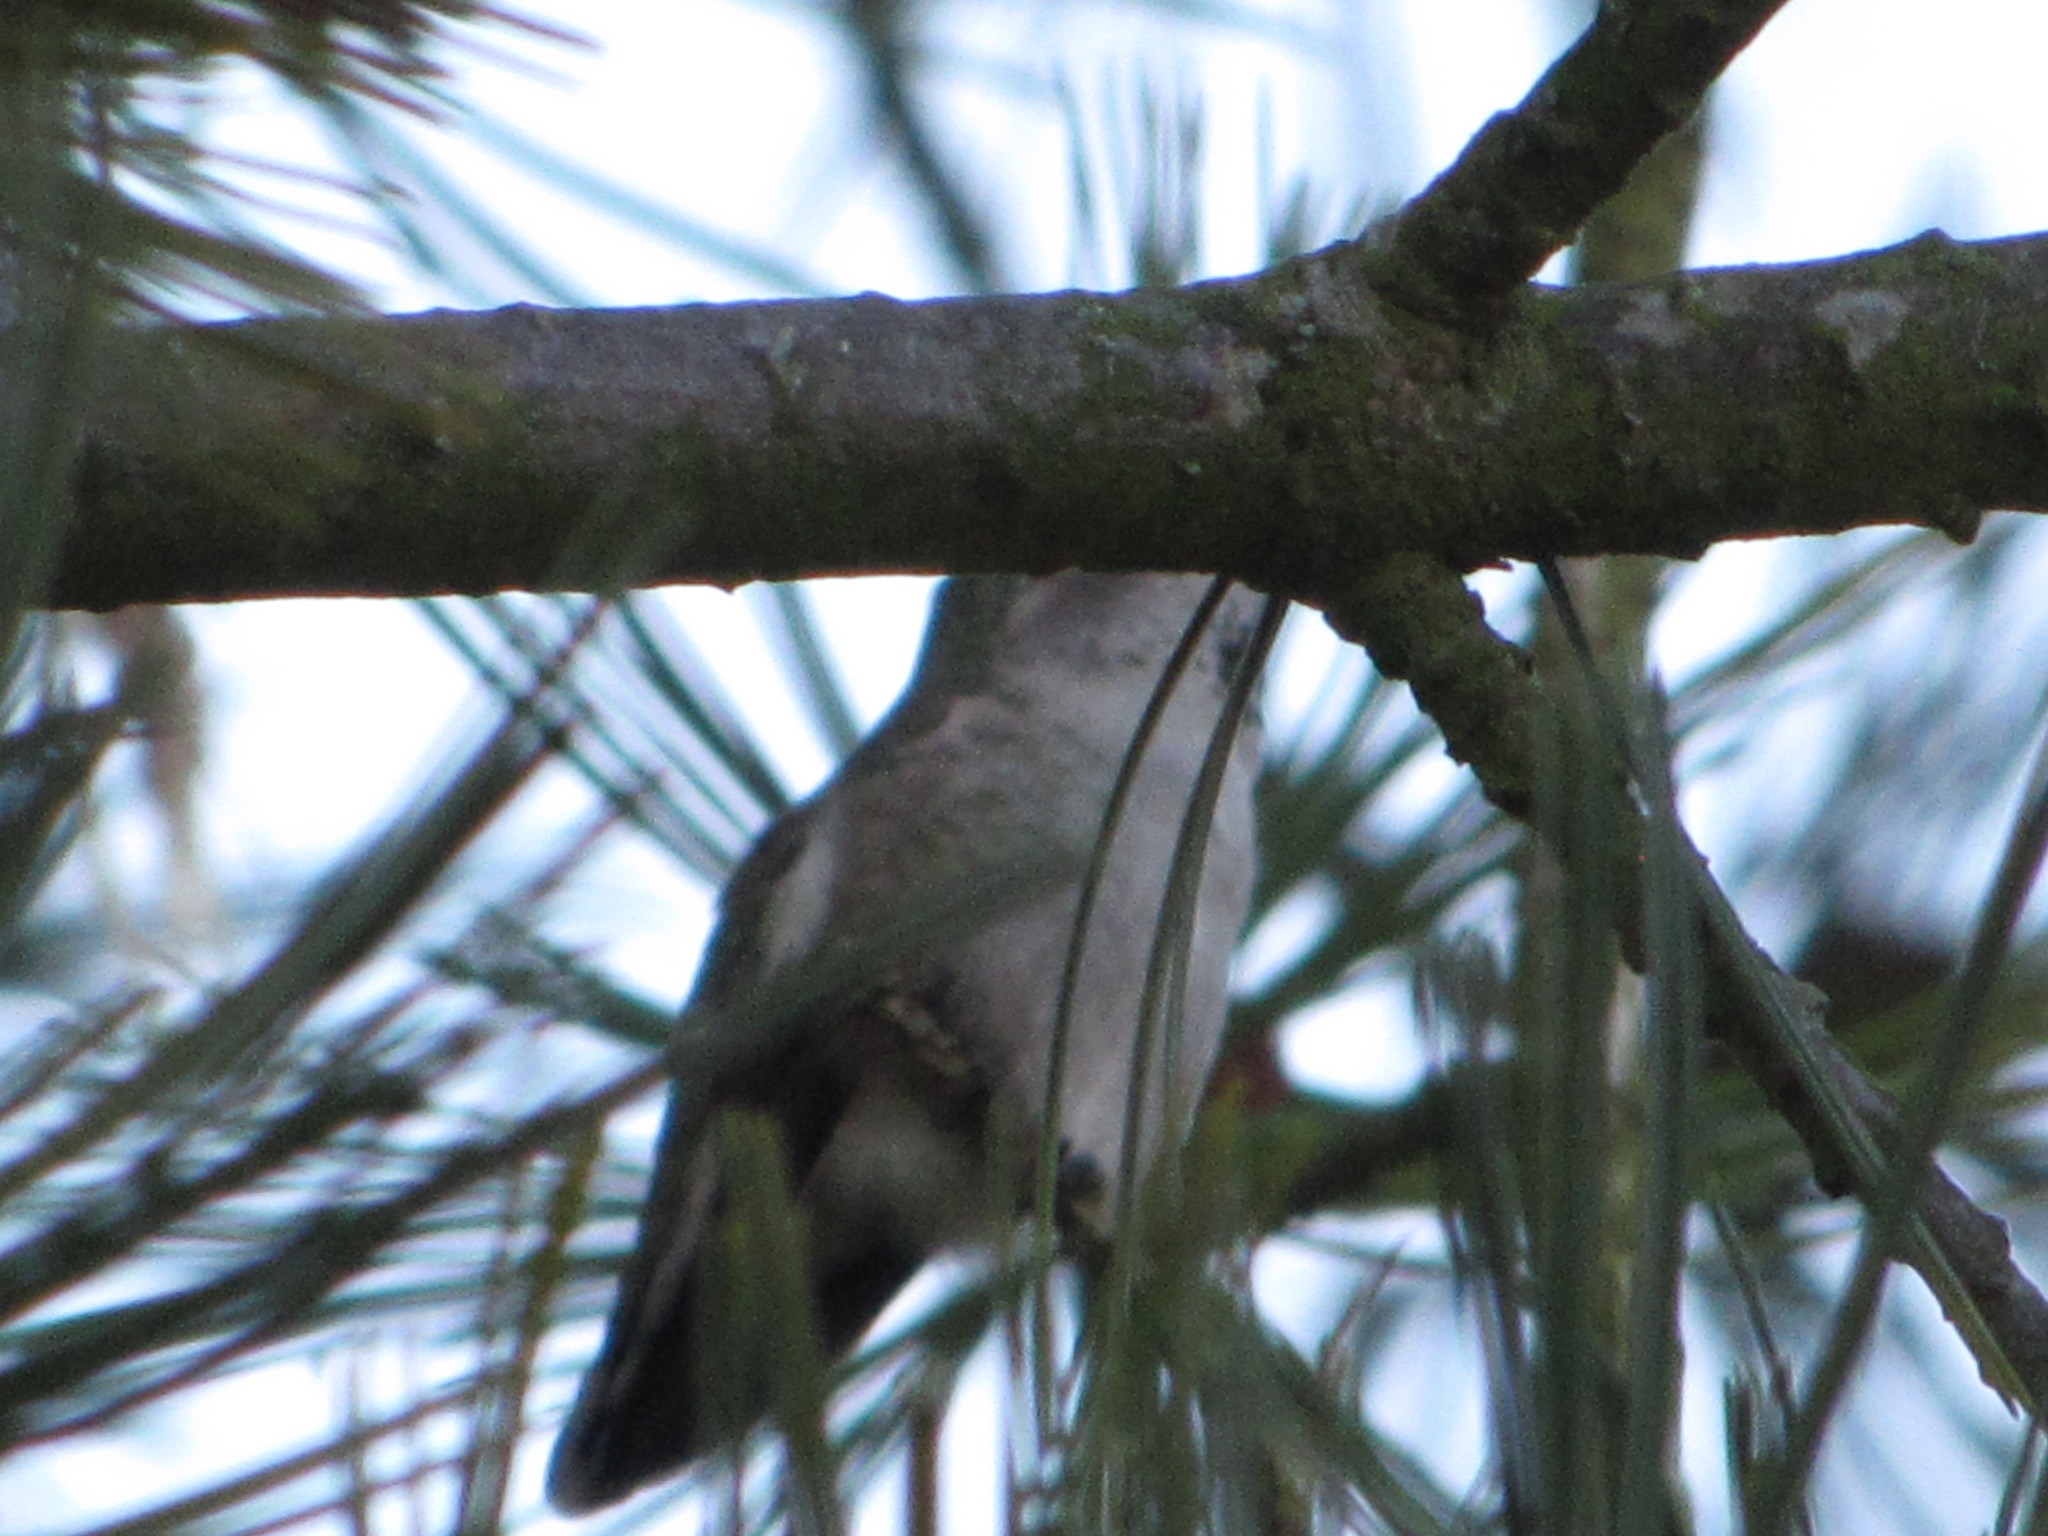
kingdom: Animalia
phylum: Chordata
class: Aves
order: Apodiformes
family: Trochilidae
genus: Calypte
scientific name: Calypte anna
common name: Anna's hummingbird
